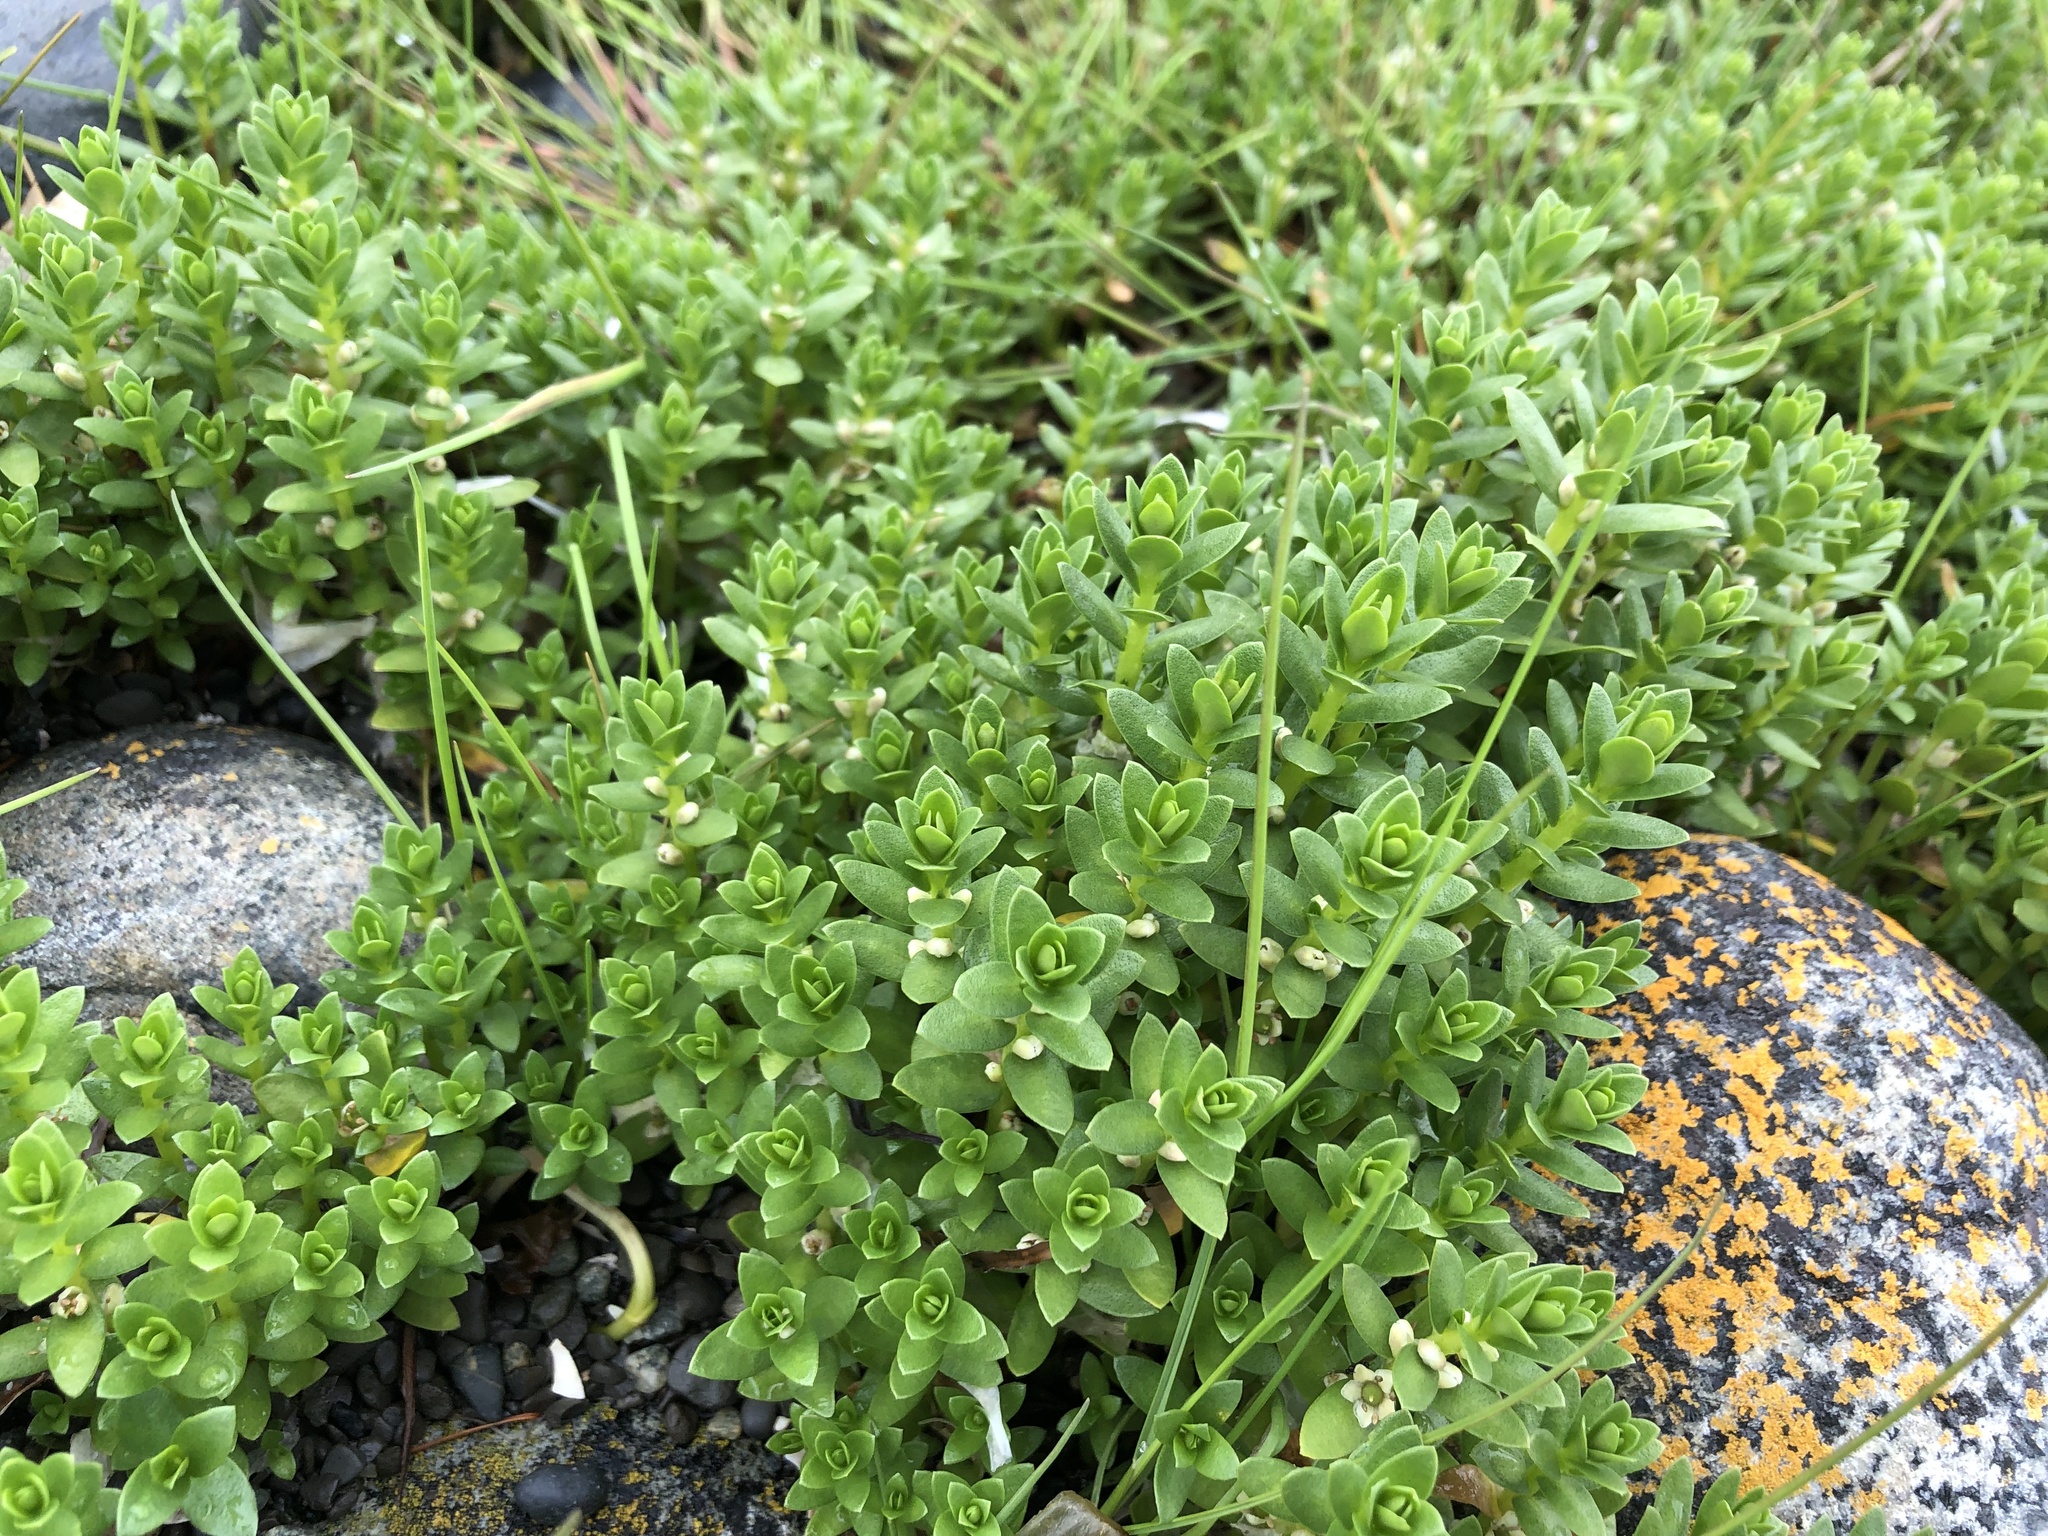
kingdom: Plantae
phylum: Tracheophyta
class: Magnoliopsida
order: Ericales
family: Primulaceae
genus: Lysimachia
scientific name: Lysimachia maritima
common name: Sea milkwort
